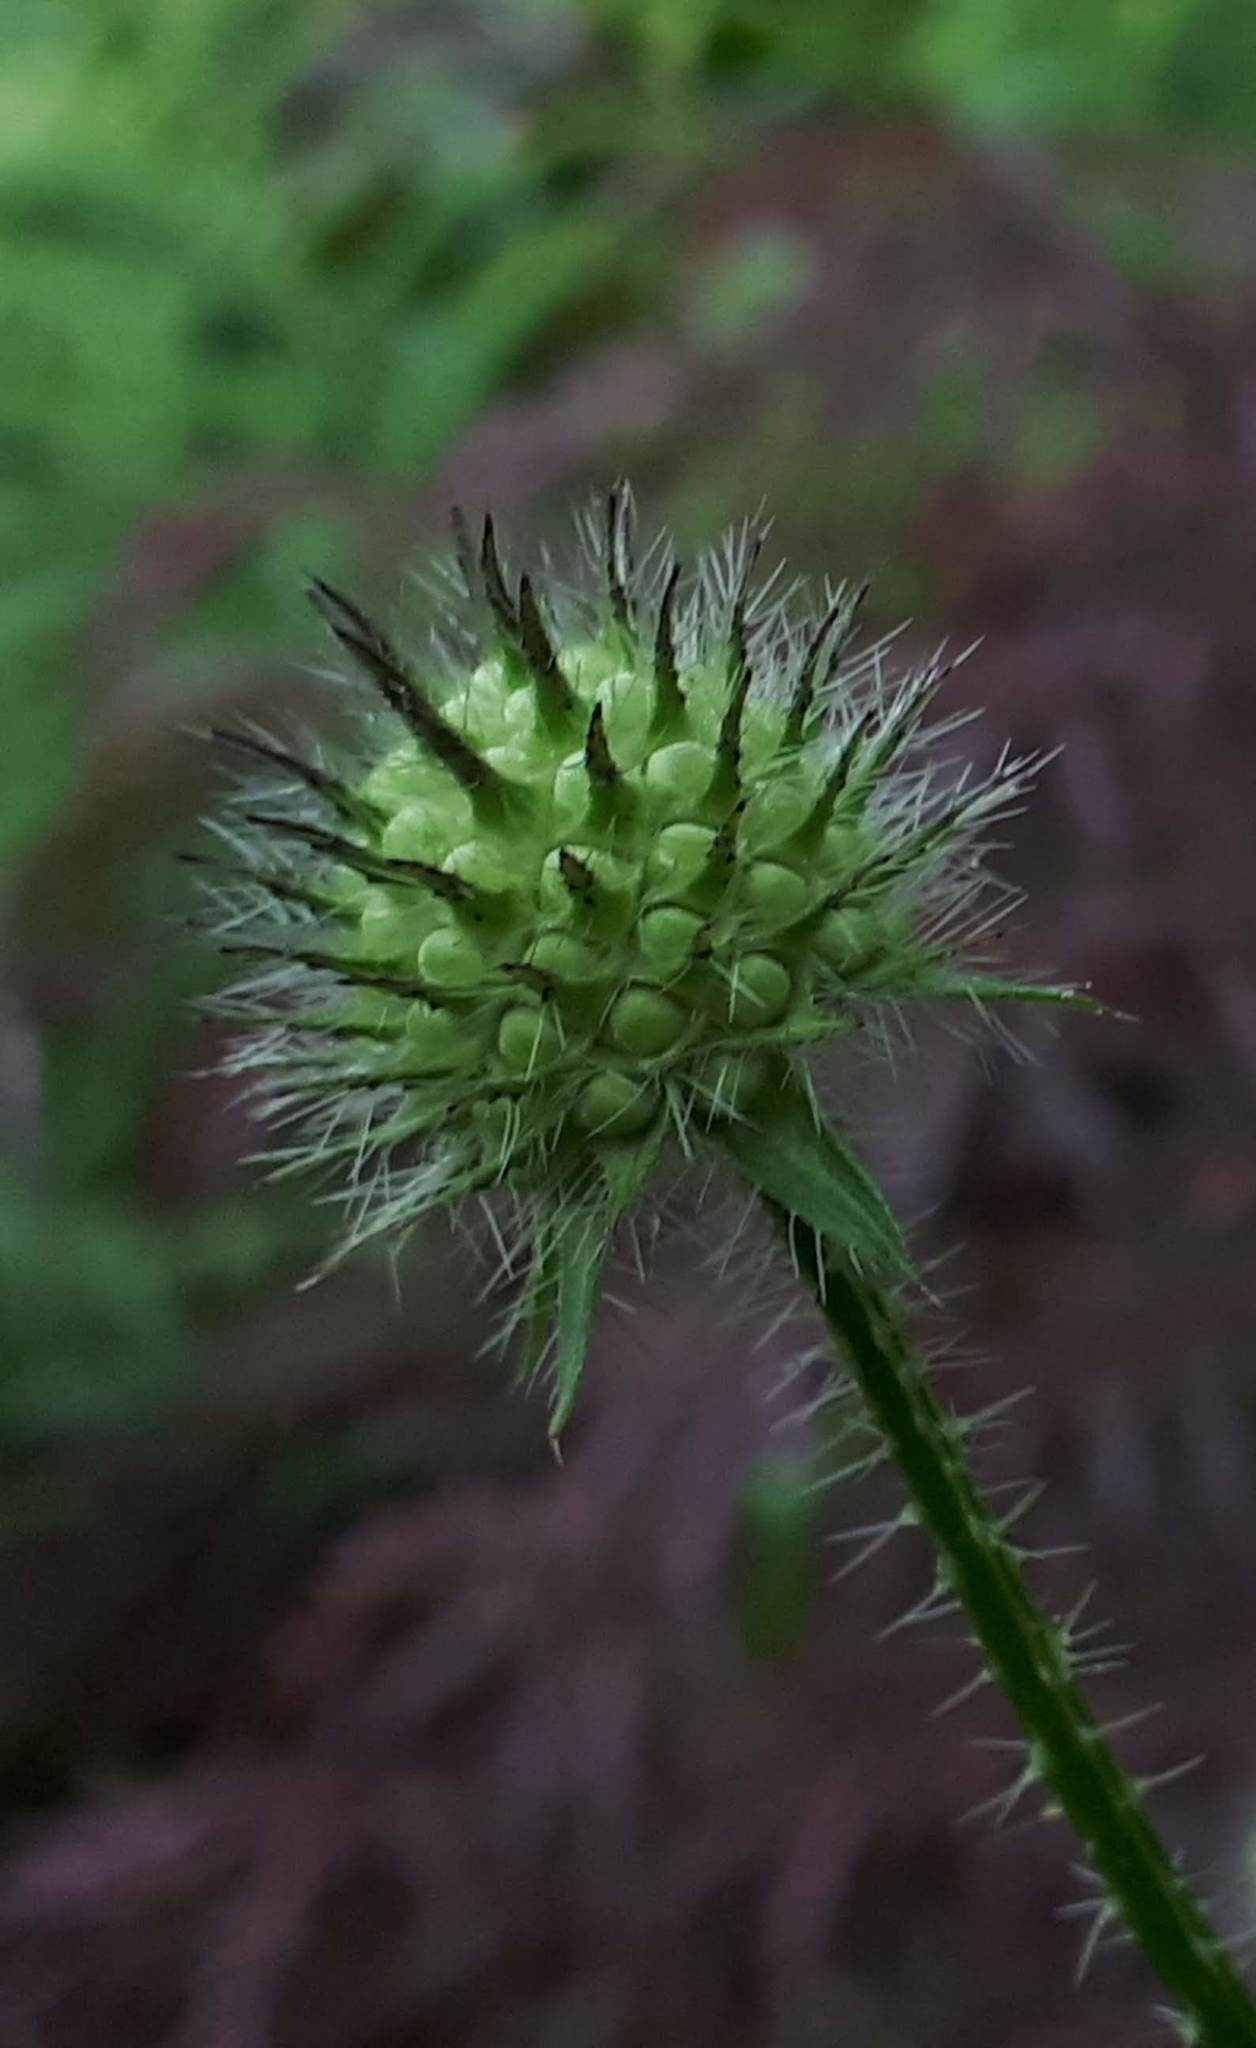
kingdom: Plantae
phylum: Tracheophyta
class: Magnoliopsida
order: Dipsacales
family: Caprifoliaceae
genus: Dipsacus
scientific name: Dipsacus pilosus
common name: Small teasel
